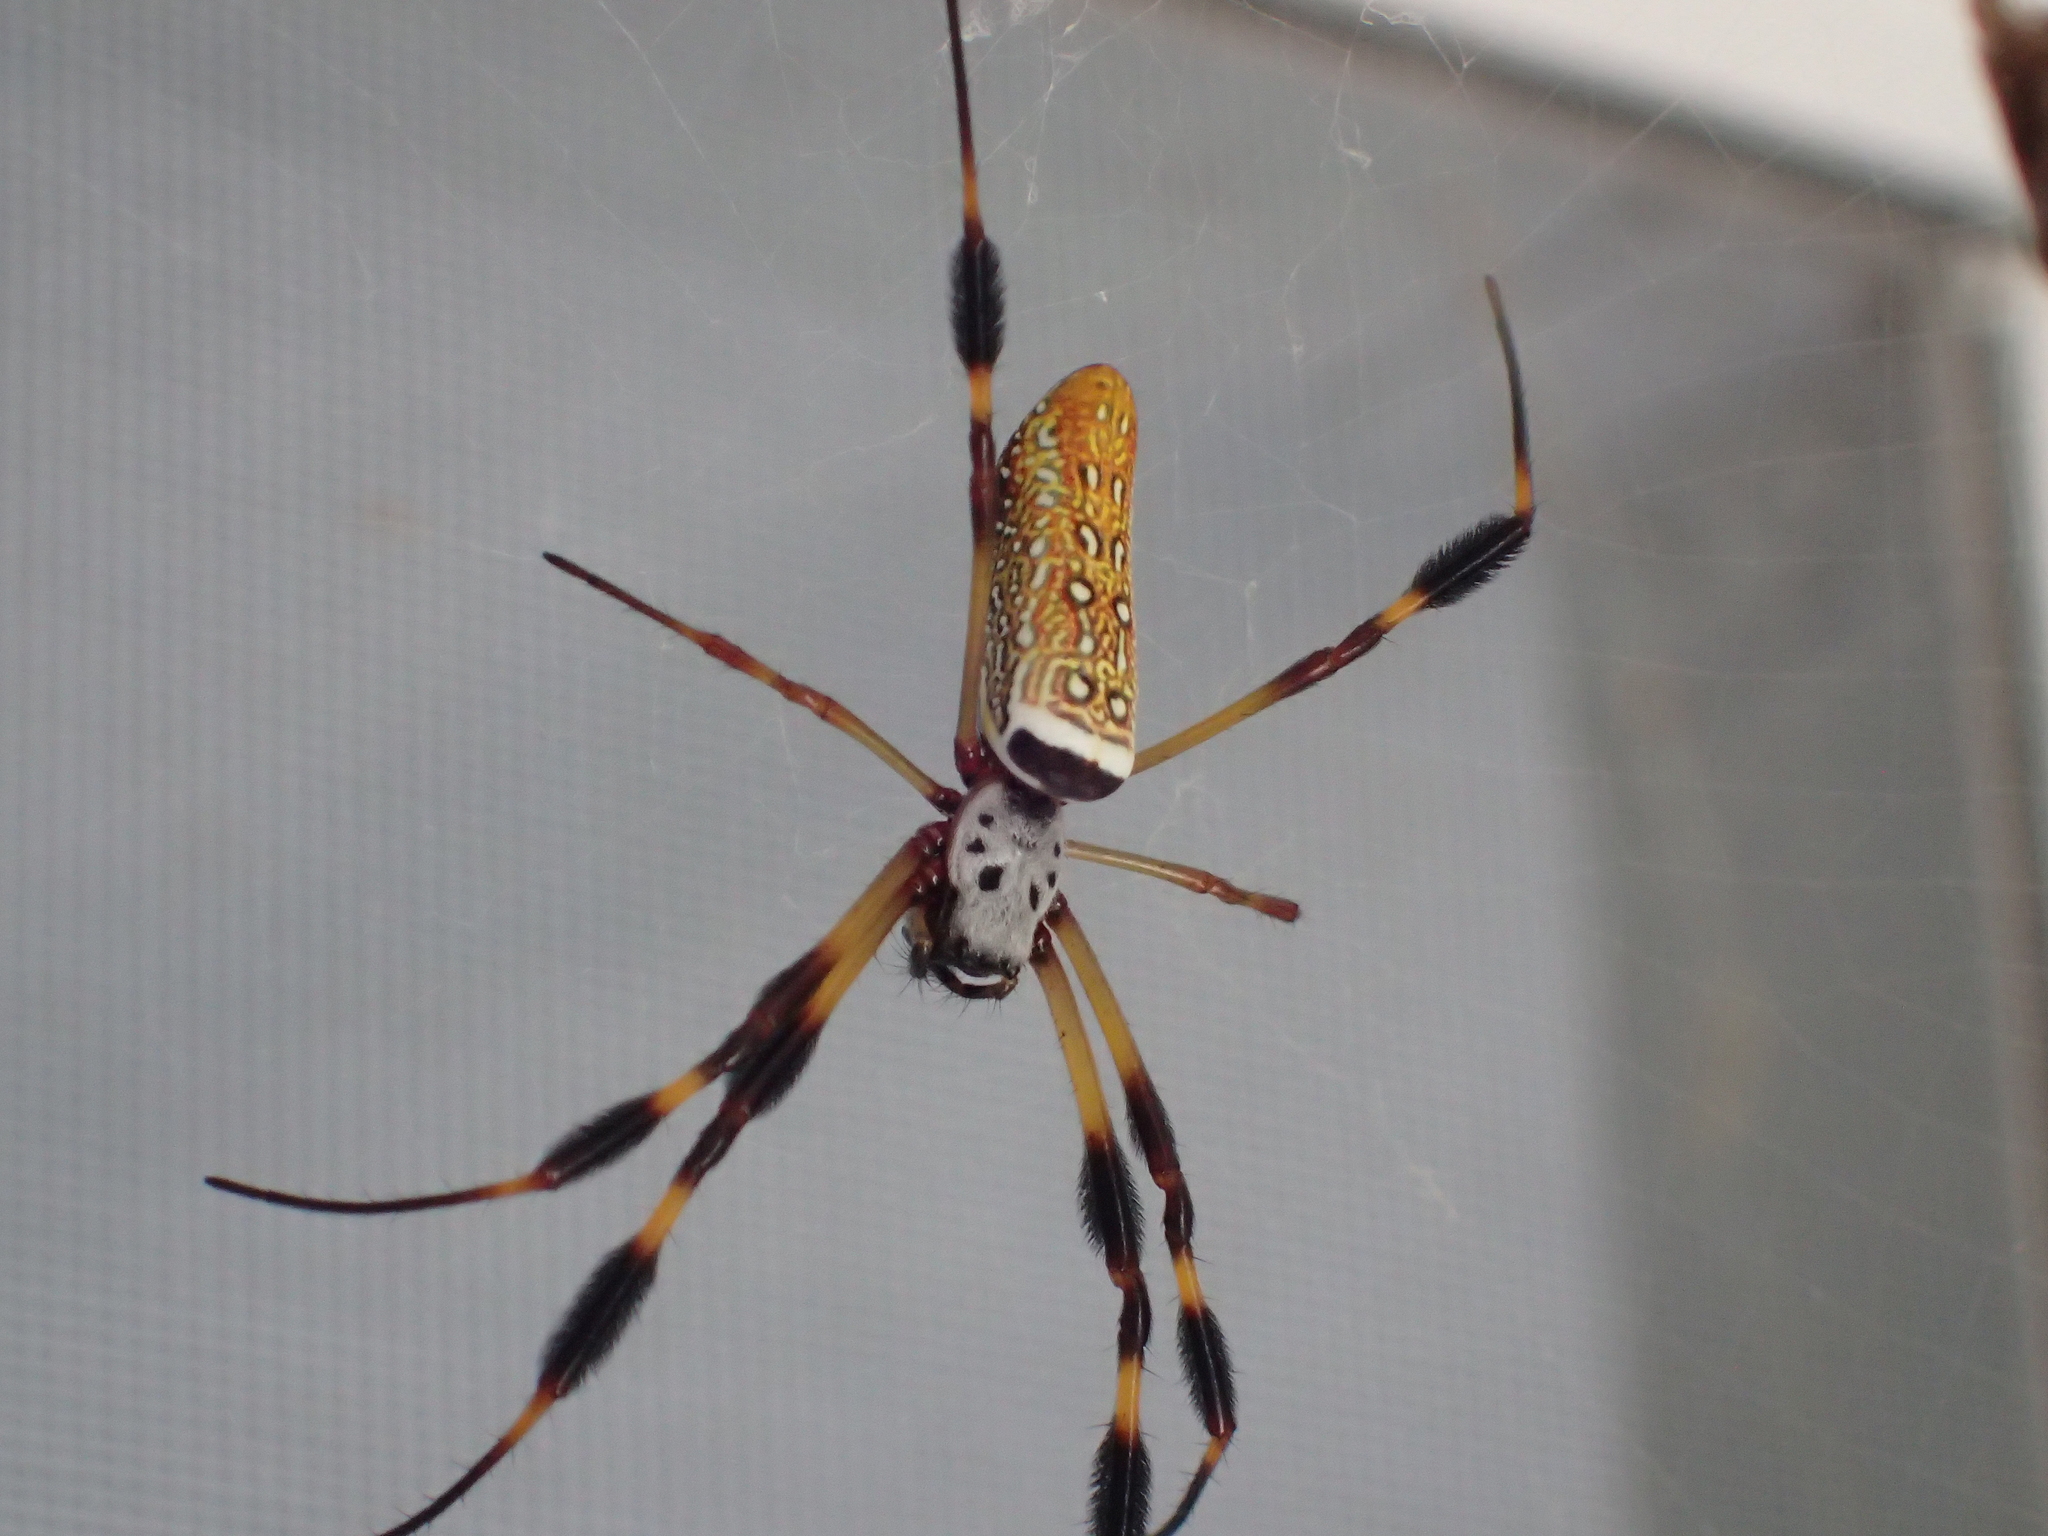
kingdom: Animalia
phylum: Arthropoda
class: Arachnida
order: Araneae
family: Araneidae
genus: Trichonephila
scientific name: Trichonephila clavipes
